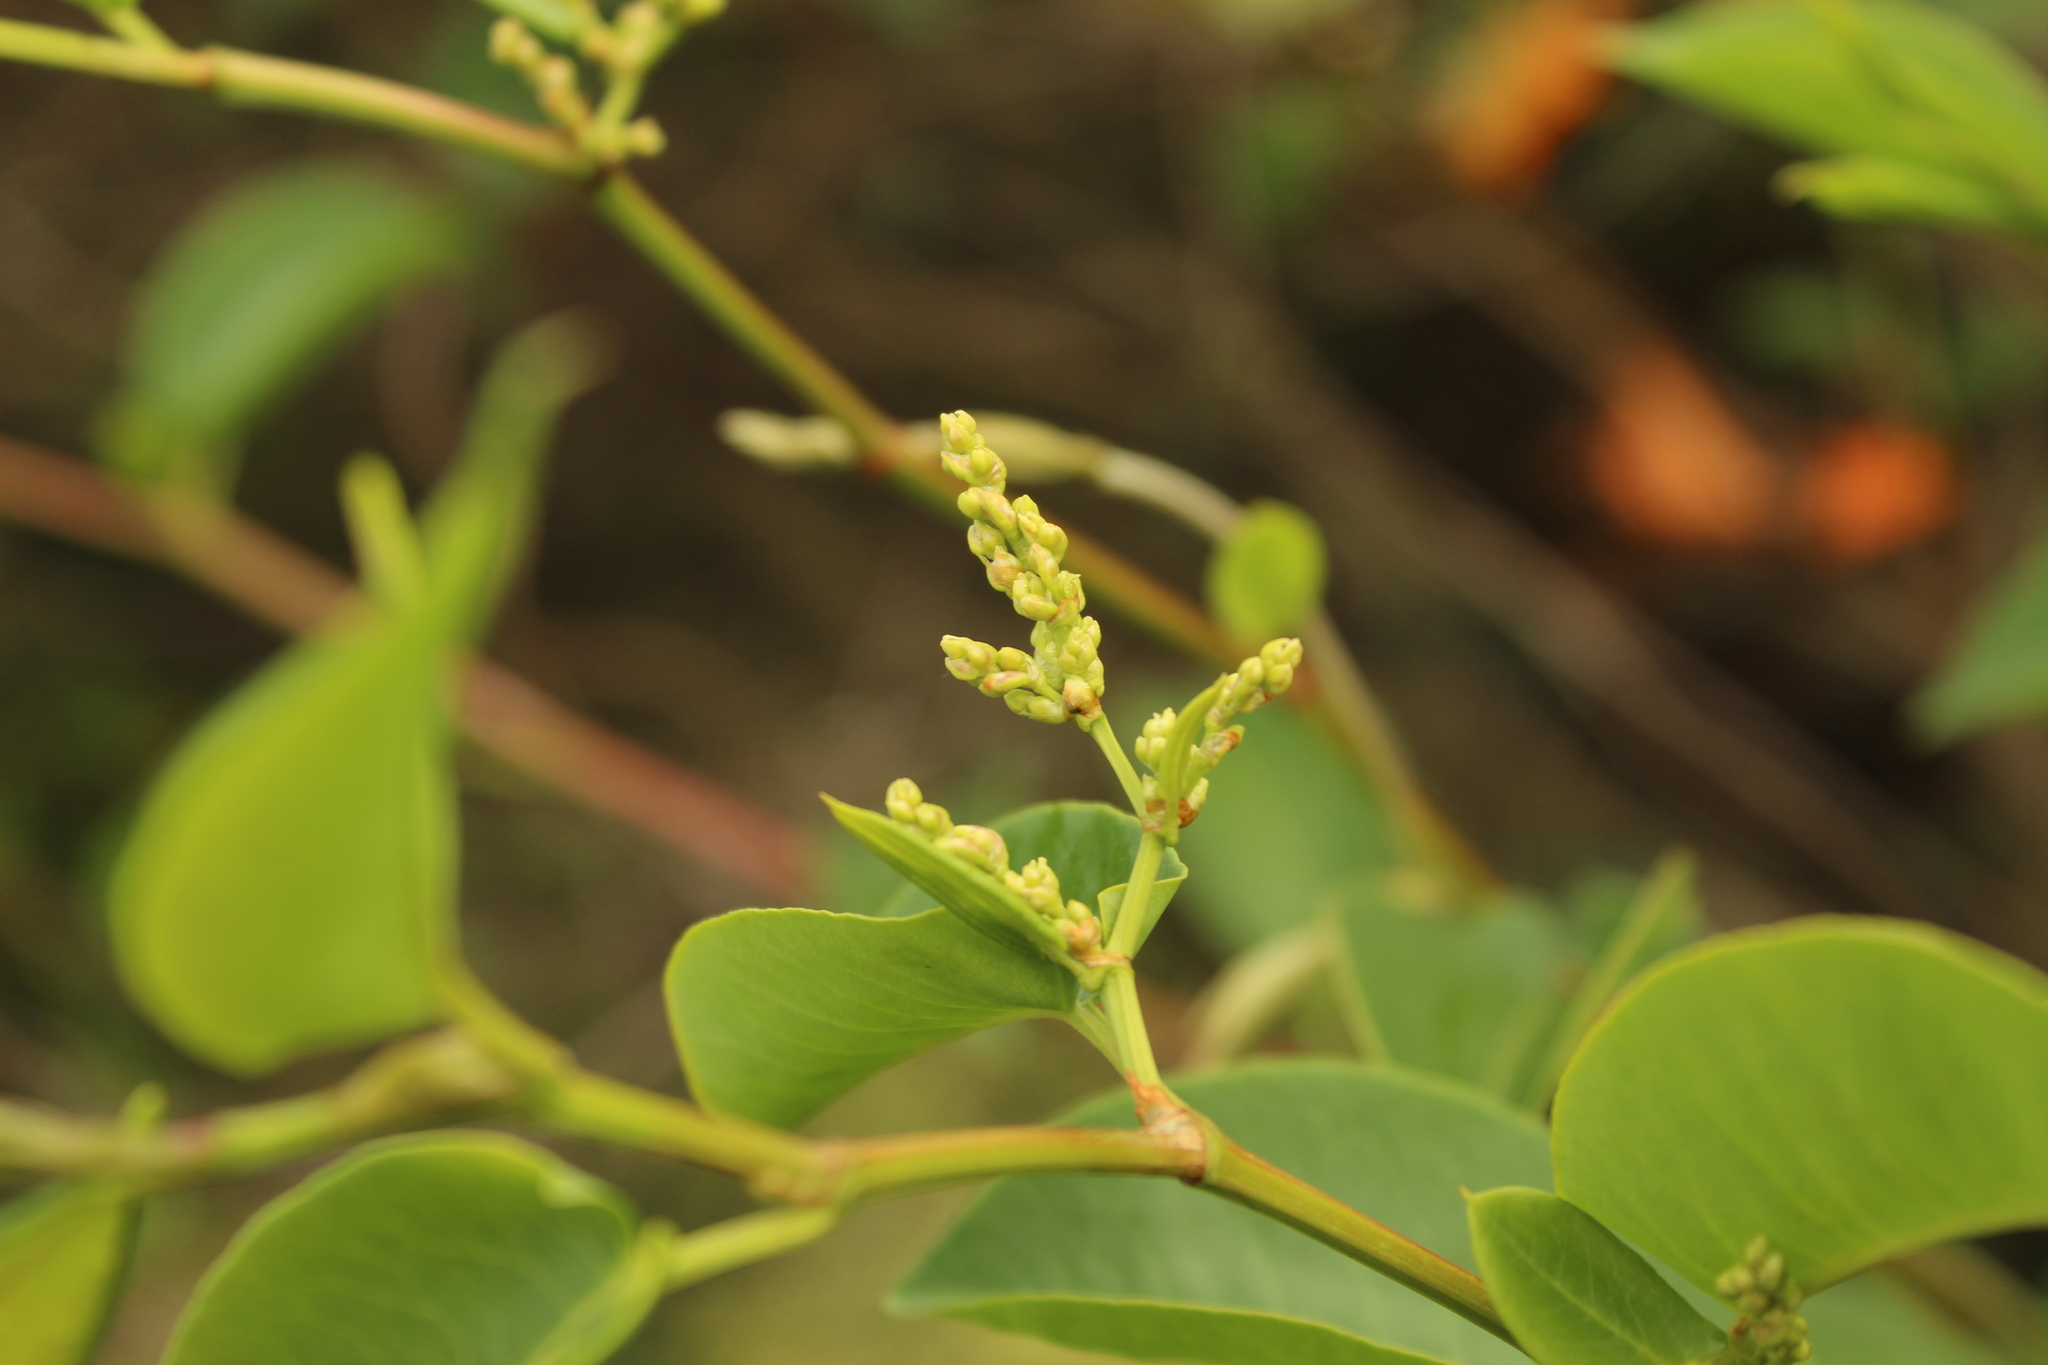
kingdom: Plantae
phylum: Tracheophyta
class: Magnoliopsida
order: Caryophyllales
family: Polygonaceae
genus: Muehlenbeckia
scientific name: Muehlenbeckia tamnifolia
